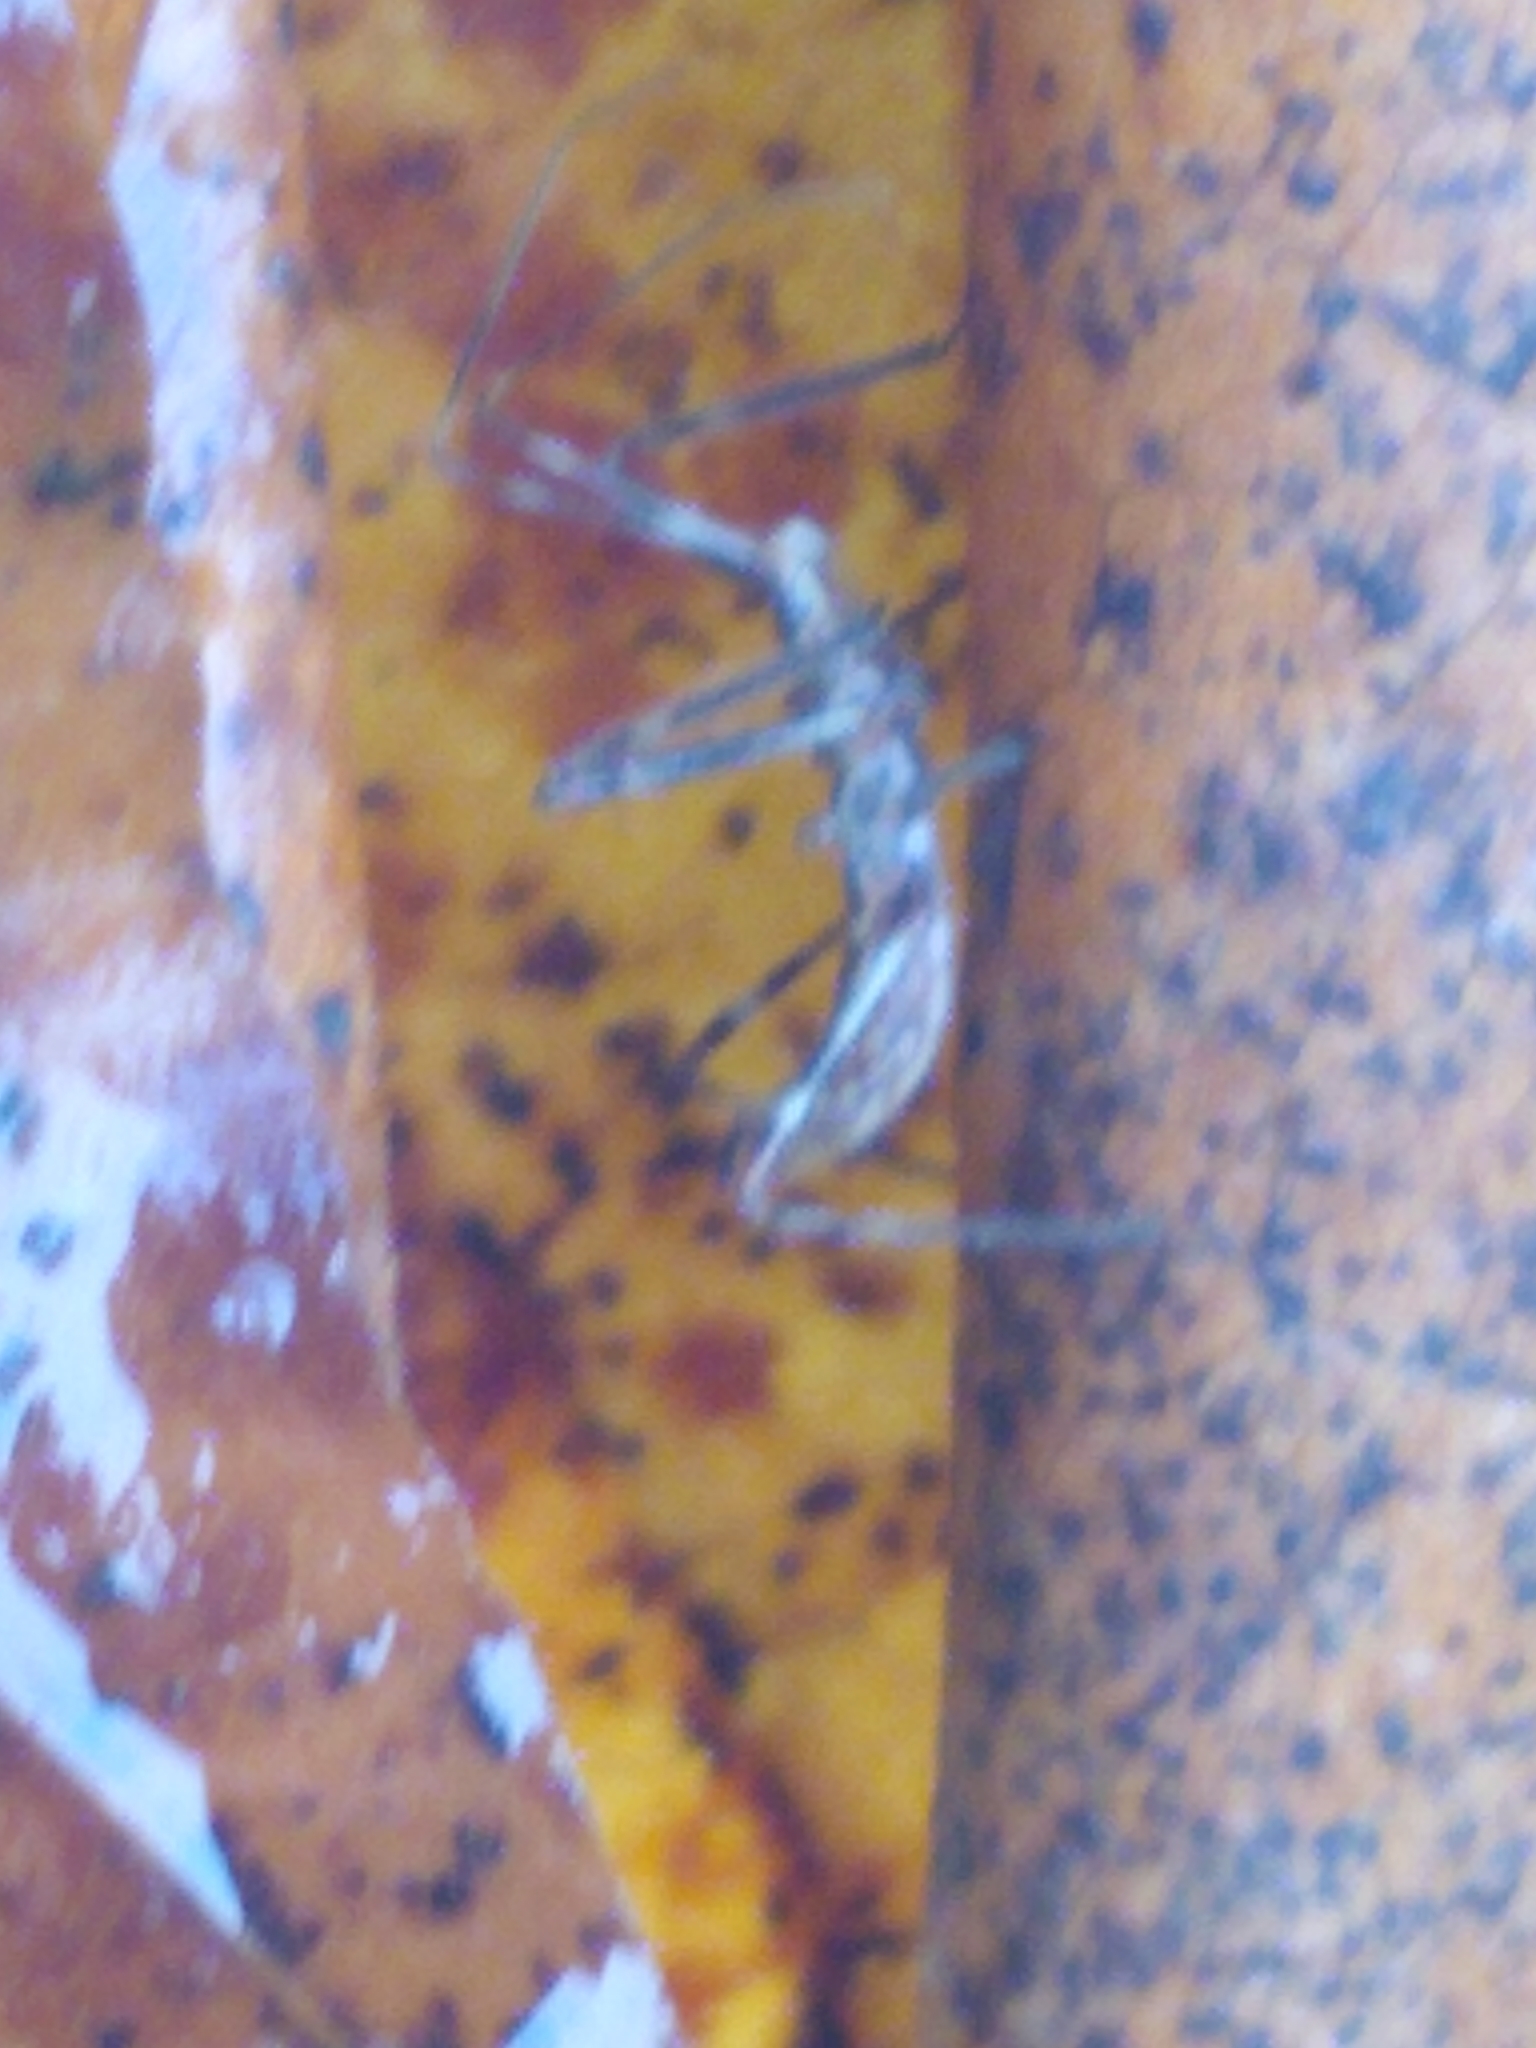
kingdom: Animalia
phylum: Arthropoda
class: Insecta
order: Hemiptera
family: Reduviidae
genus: Zelus
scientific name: Zelus tetracanthus
